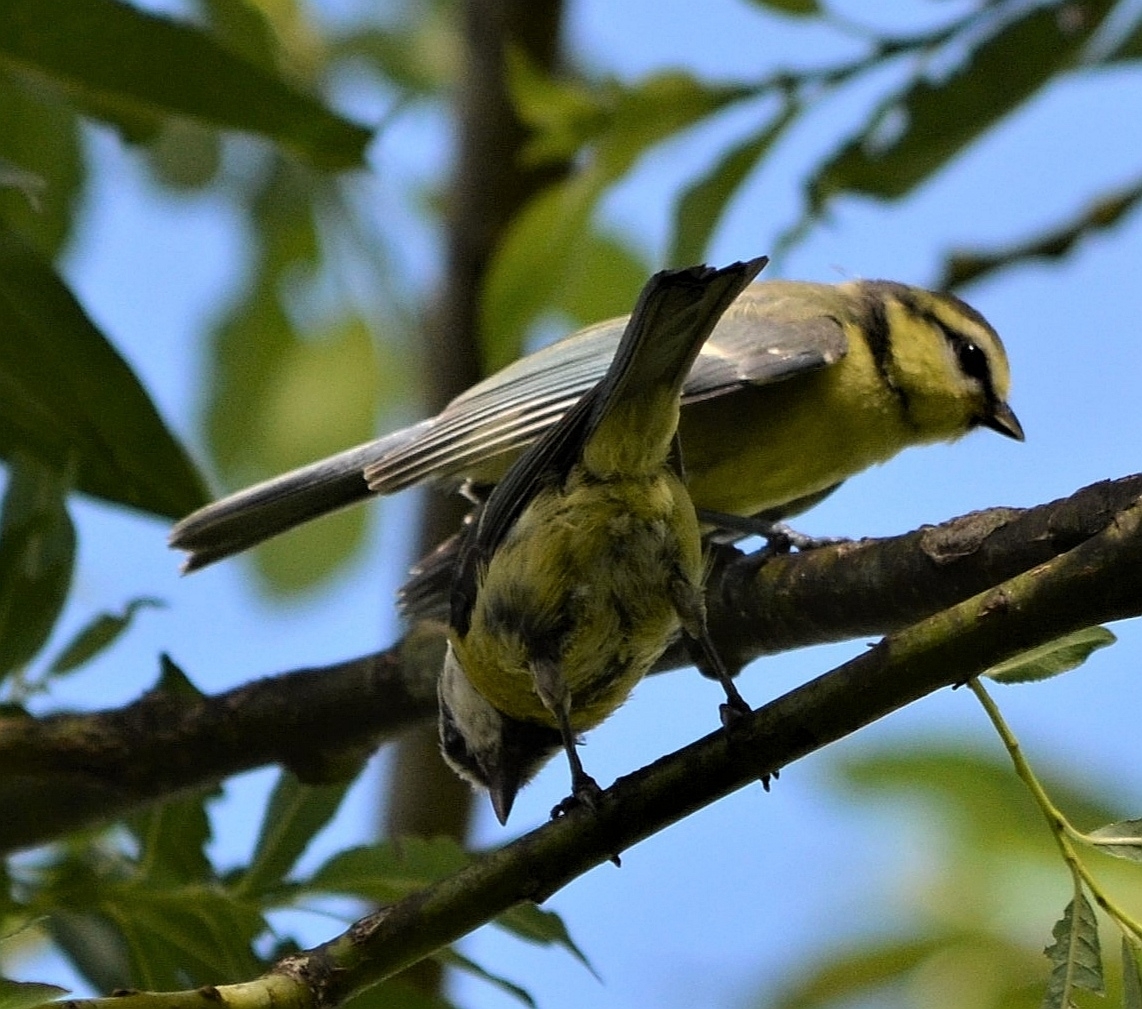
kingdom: Animalia
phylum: Chordata
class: Aves
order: Passeriformes
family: Paridae
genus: Cyanistes
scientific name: Cyanistes caeruleus
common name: Eurasian blue tit
